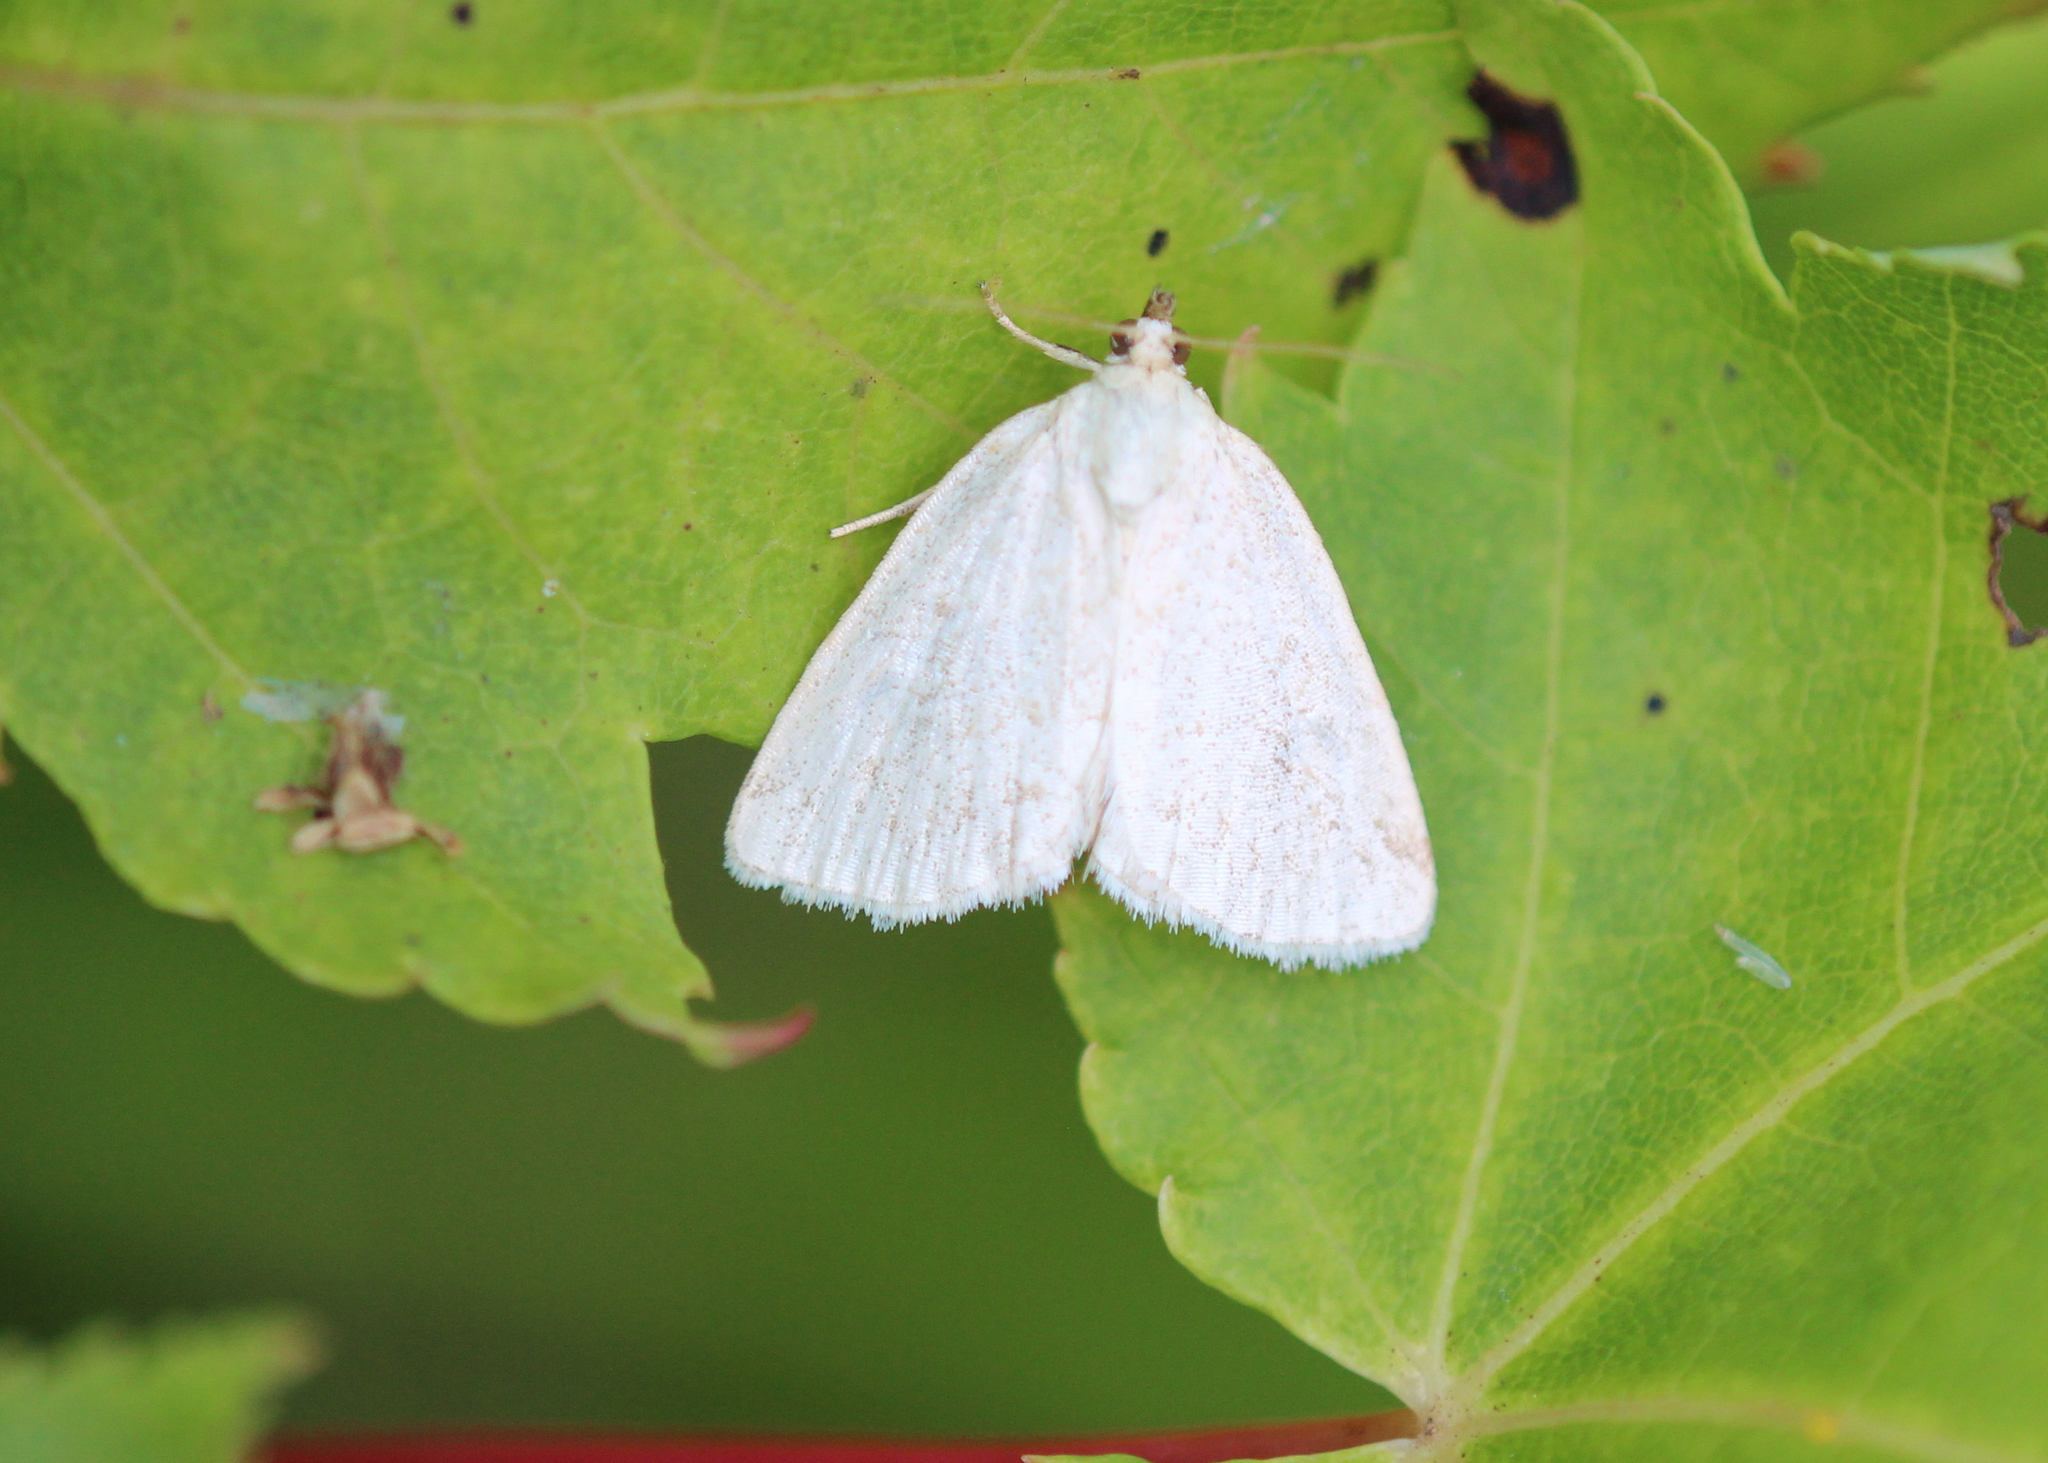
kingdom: Animalia
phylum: Arthropoda
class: Insecta
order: Lepidoptera
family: Noctuidae
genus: Protodeltote
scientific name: Protodeltote albidula
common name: Pale glyph
